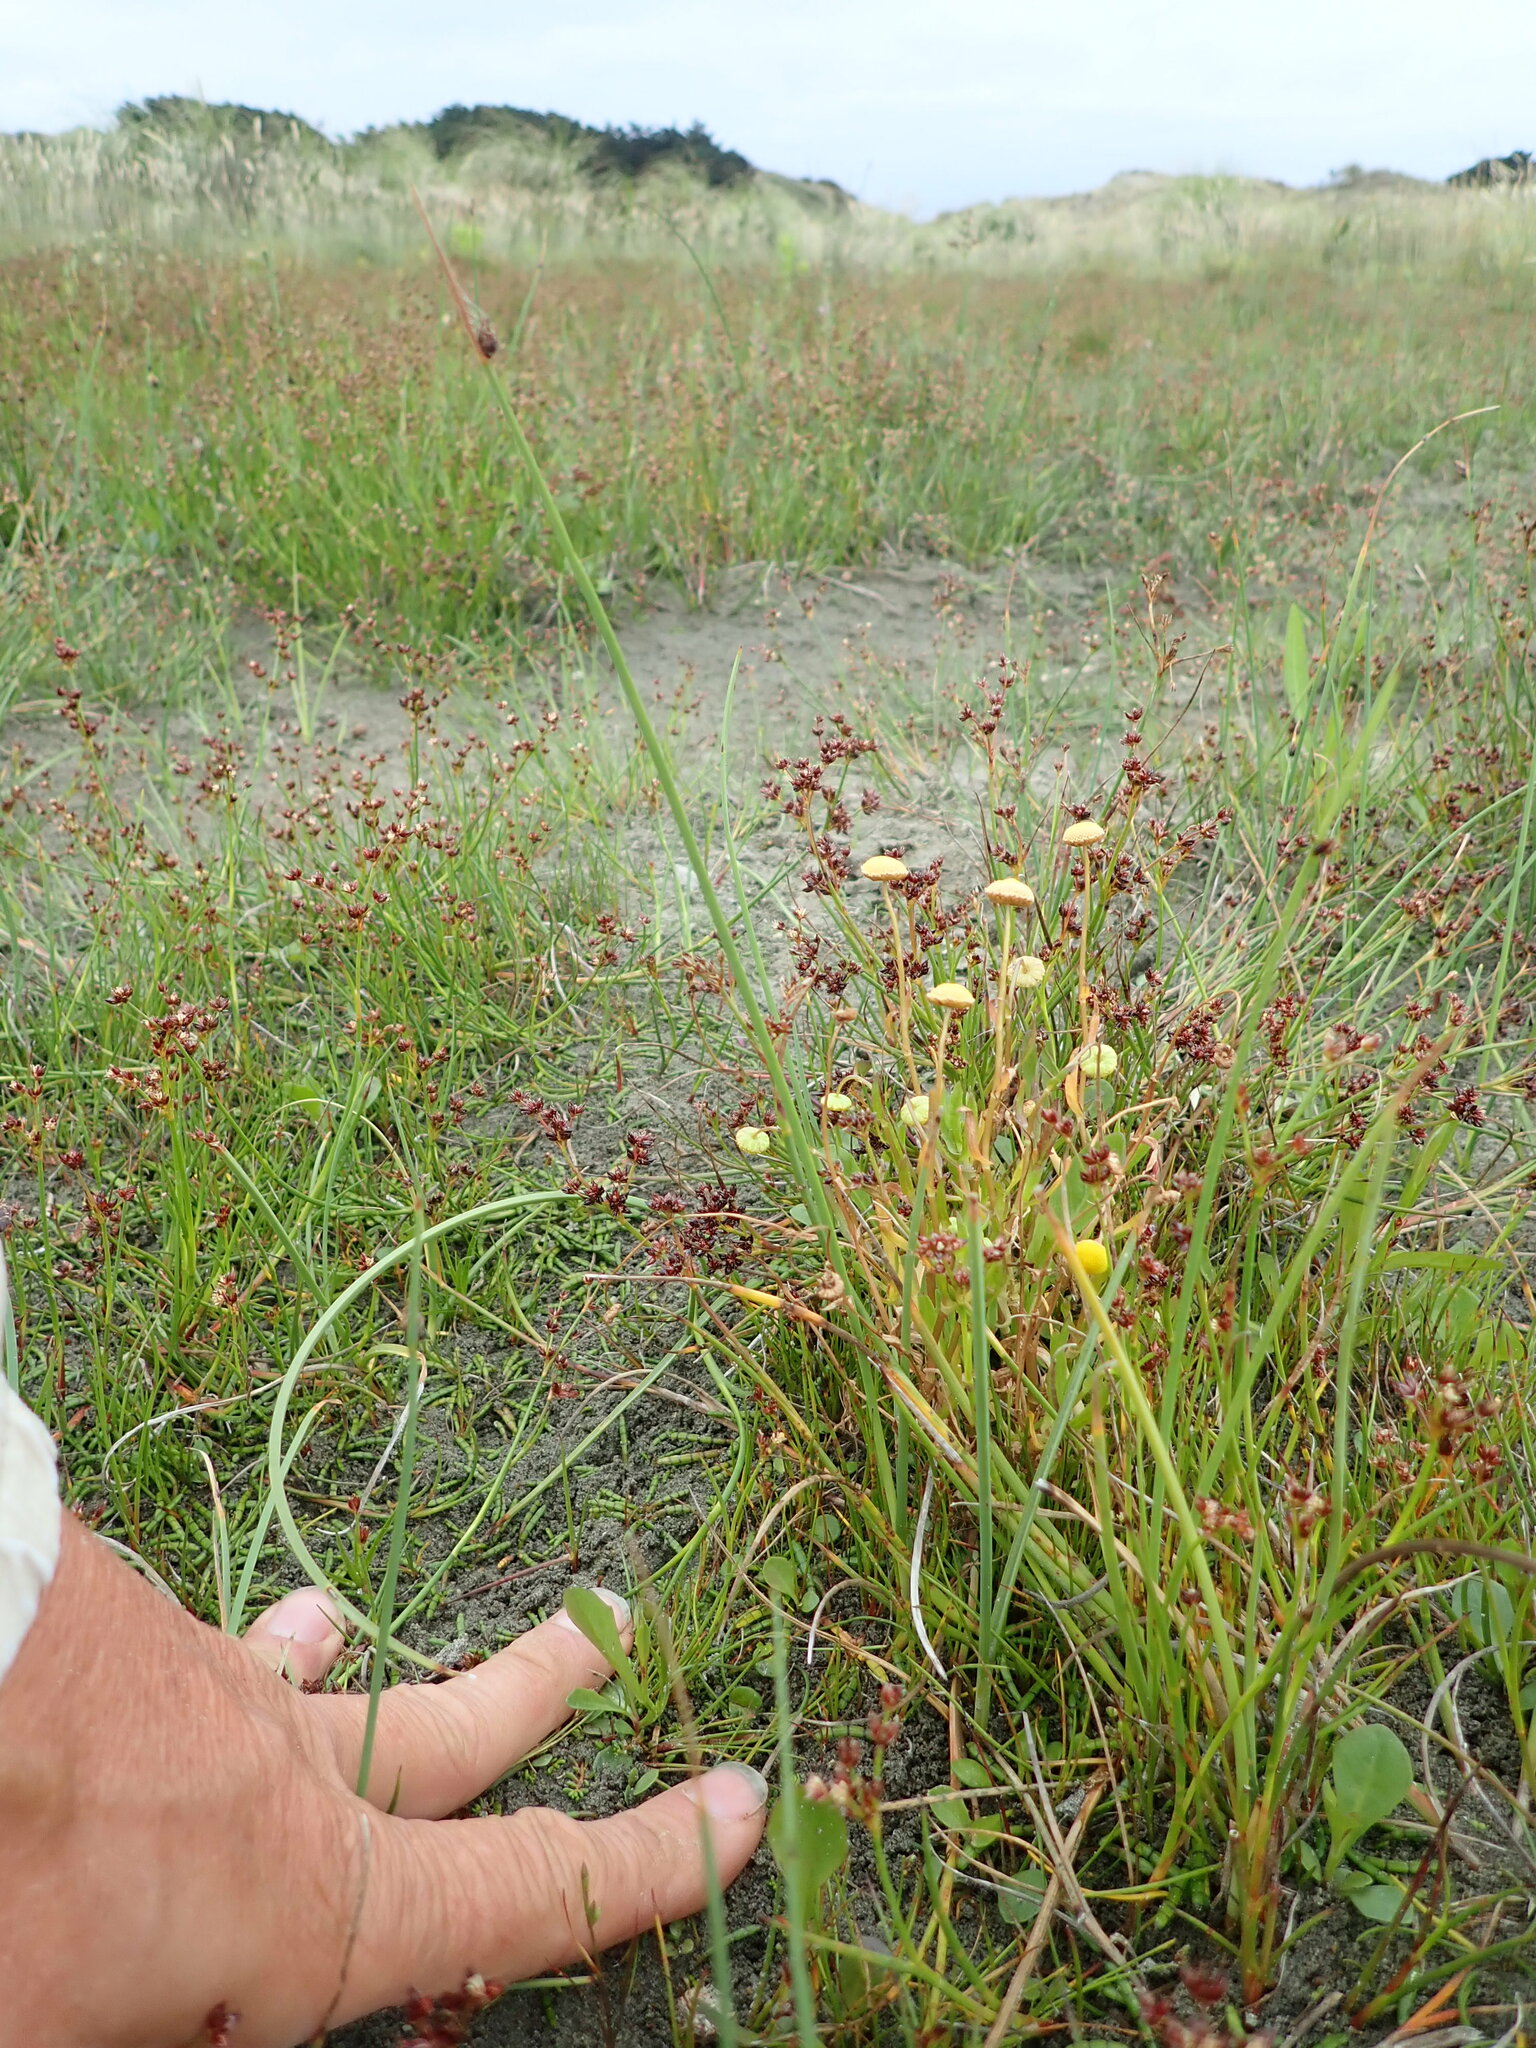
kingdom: Plantae
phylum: Tracheophyta
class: Magnoliopsida
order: Asterales
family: Asteraceae
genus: Cotula
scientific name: Cotula coronopifolia
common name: Buttonweed
